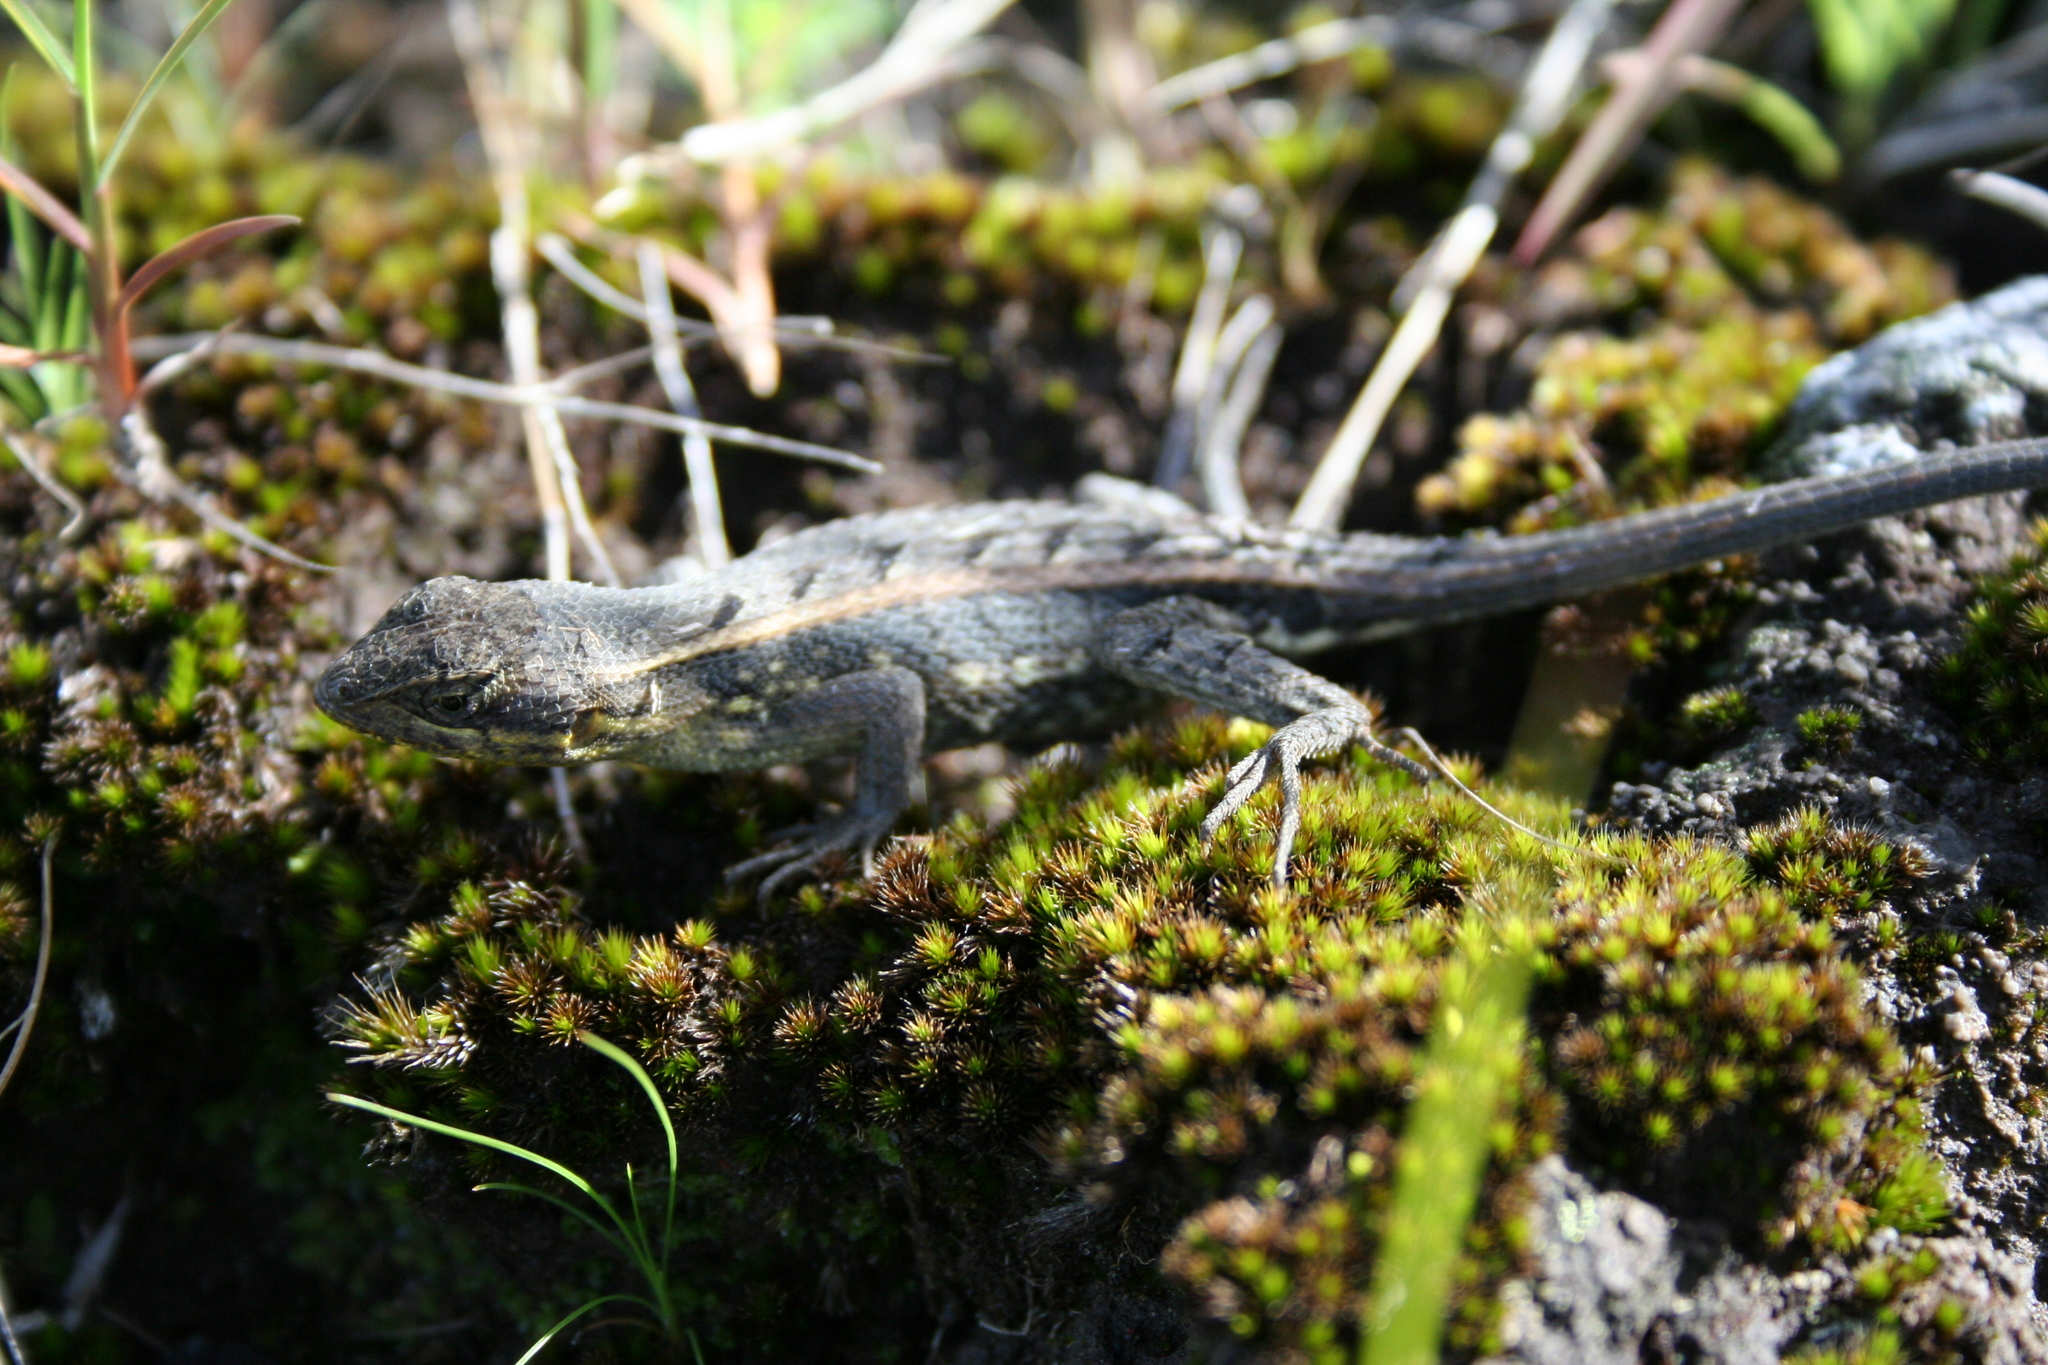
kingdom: Animalia
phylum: Chordata
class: Squamata
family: Phrynosomatidae
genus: Sceloporus
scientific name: Sceloporus squamosus
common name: Dwarf spiny lizard
